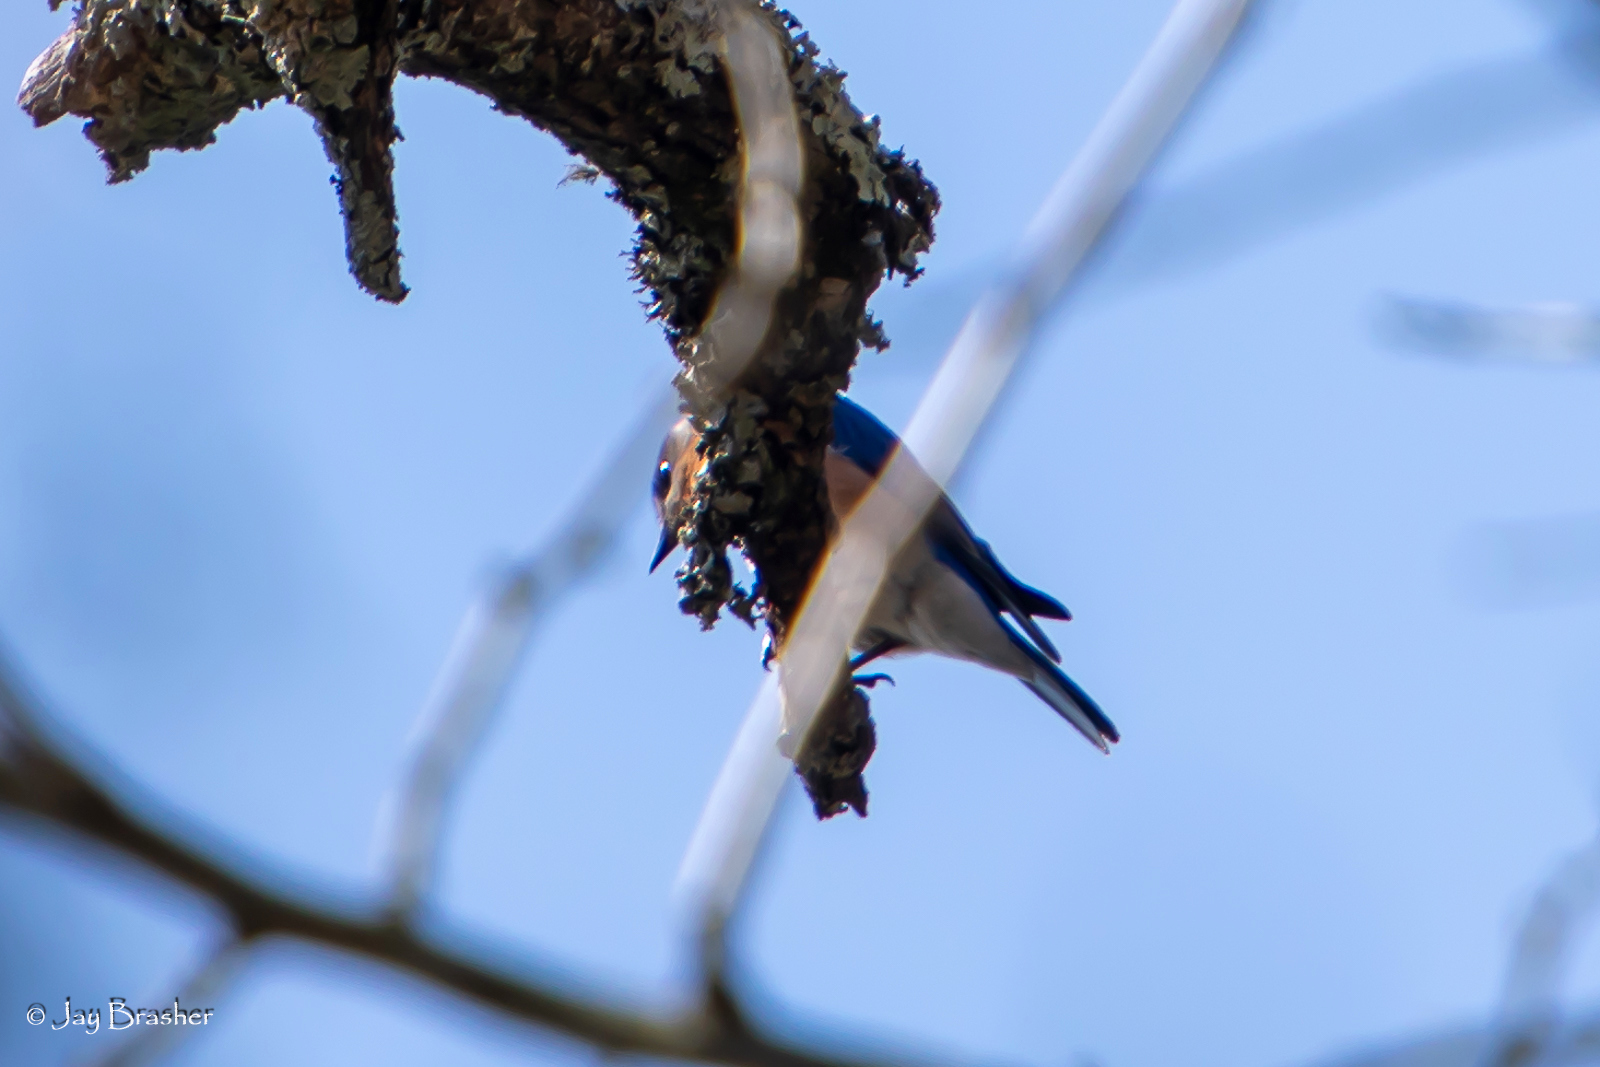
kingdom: Animalia
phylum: Chordata
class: Aves
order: Passeriformes
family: Turdidae
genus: Sialia
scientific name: Sialia sialis
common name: Eastern bluebird
